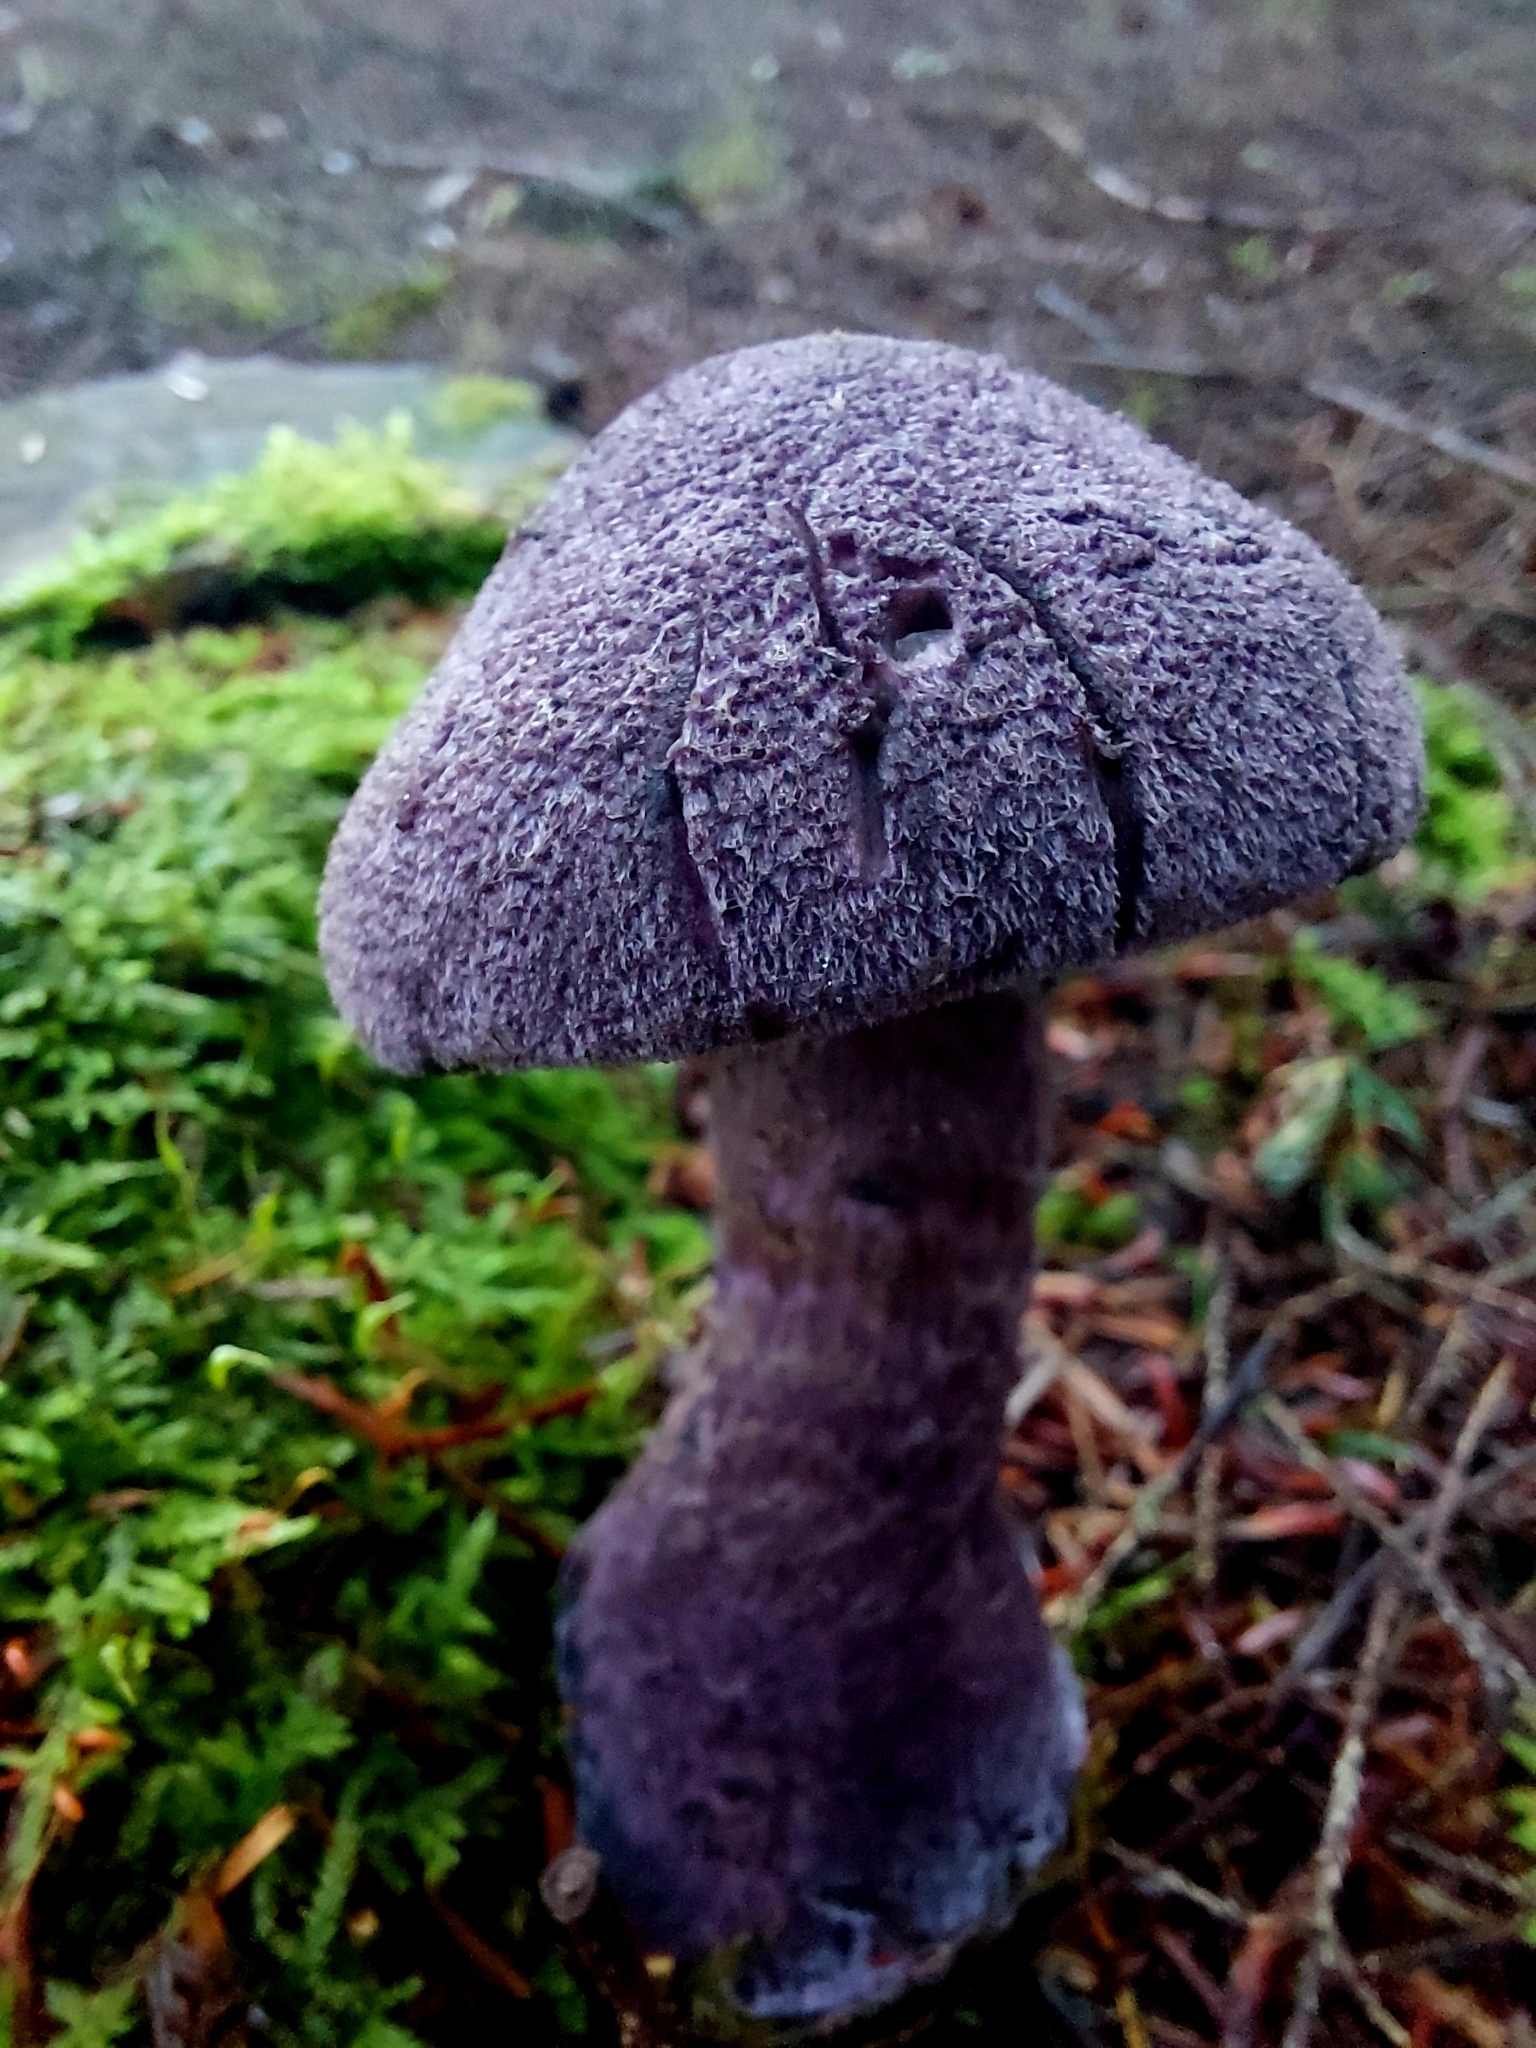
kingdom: Fungi
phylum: Basidiomycota
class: Agaricomycetes
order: Agaricales
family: Cortinariaceae
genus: Cortinarius
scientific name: Cortinarius violaceus
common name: Violet webcap
